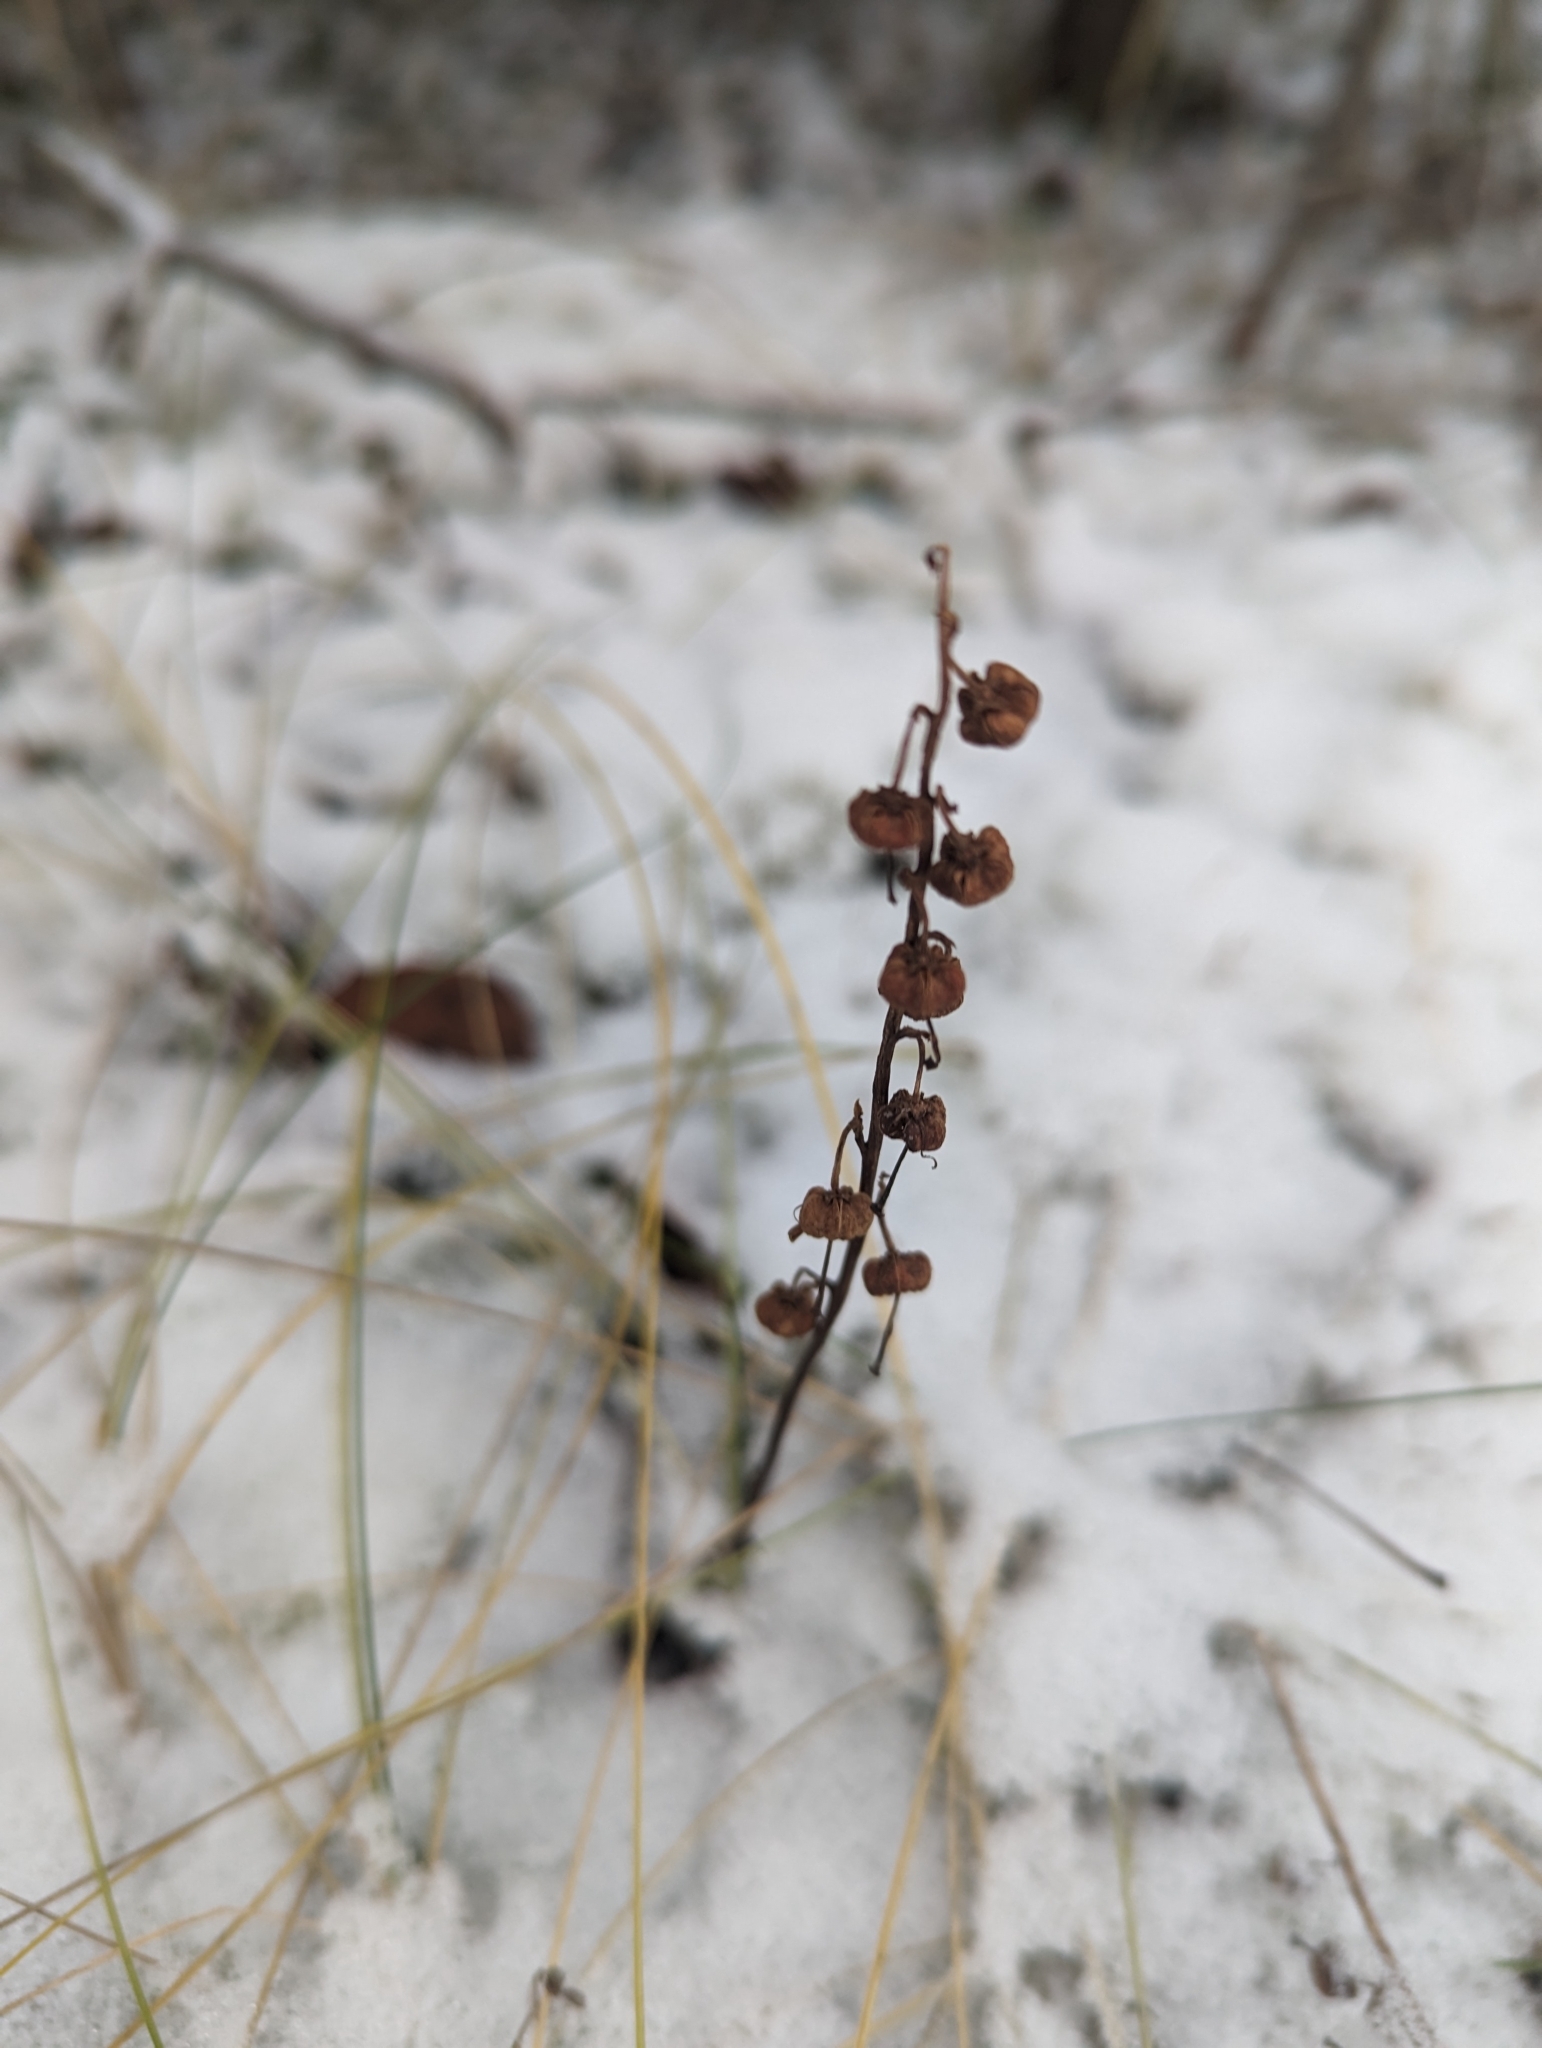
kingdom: Plantae
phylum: Tracheophyta
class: Magnoliopsida
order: Ericales
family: Ericaceae
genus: Orthilia
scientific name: Orthilia secunda
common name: One-sided orthilia
